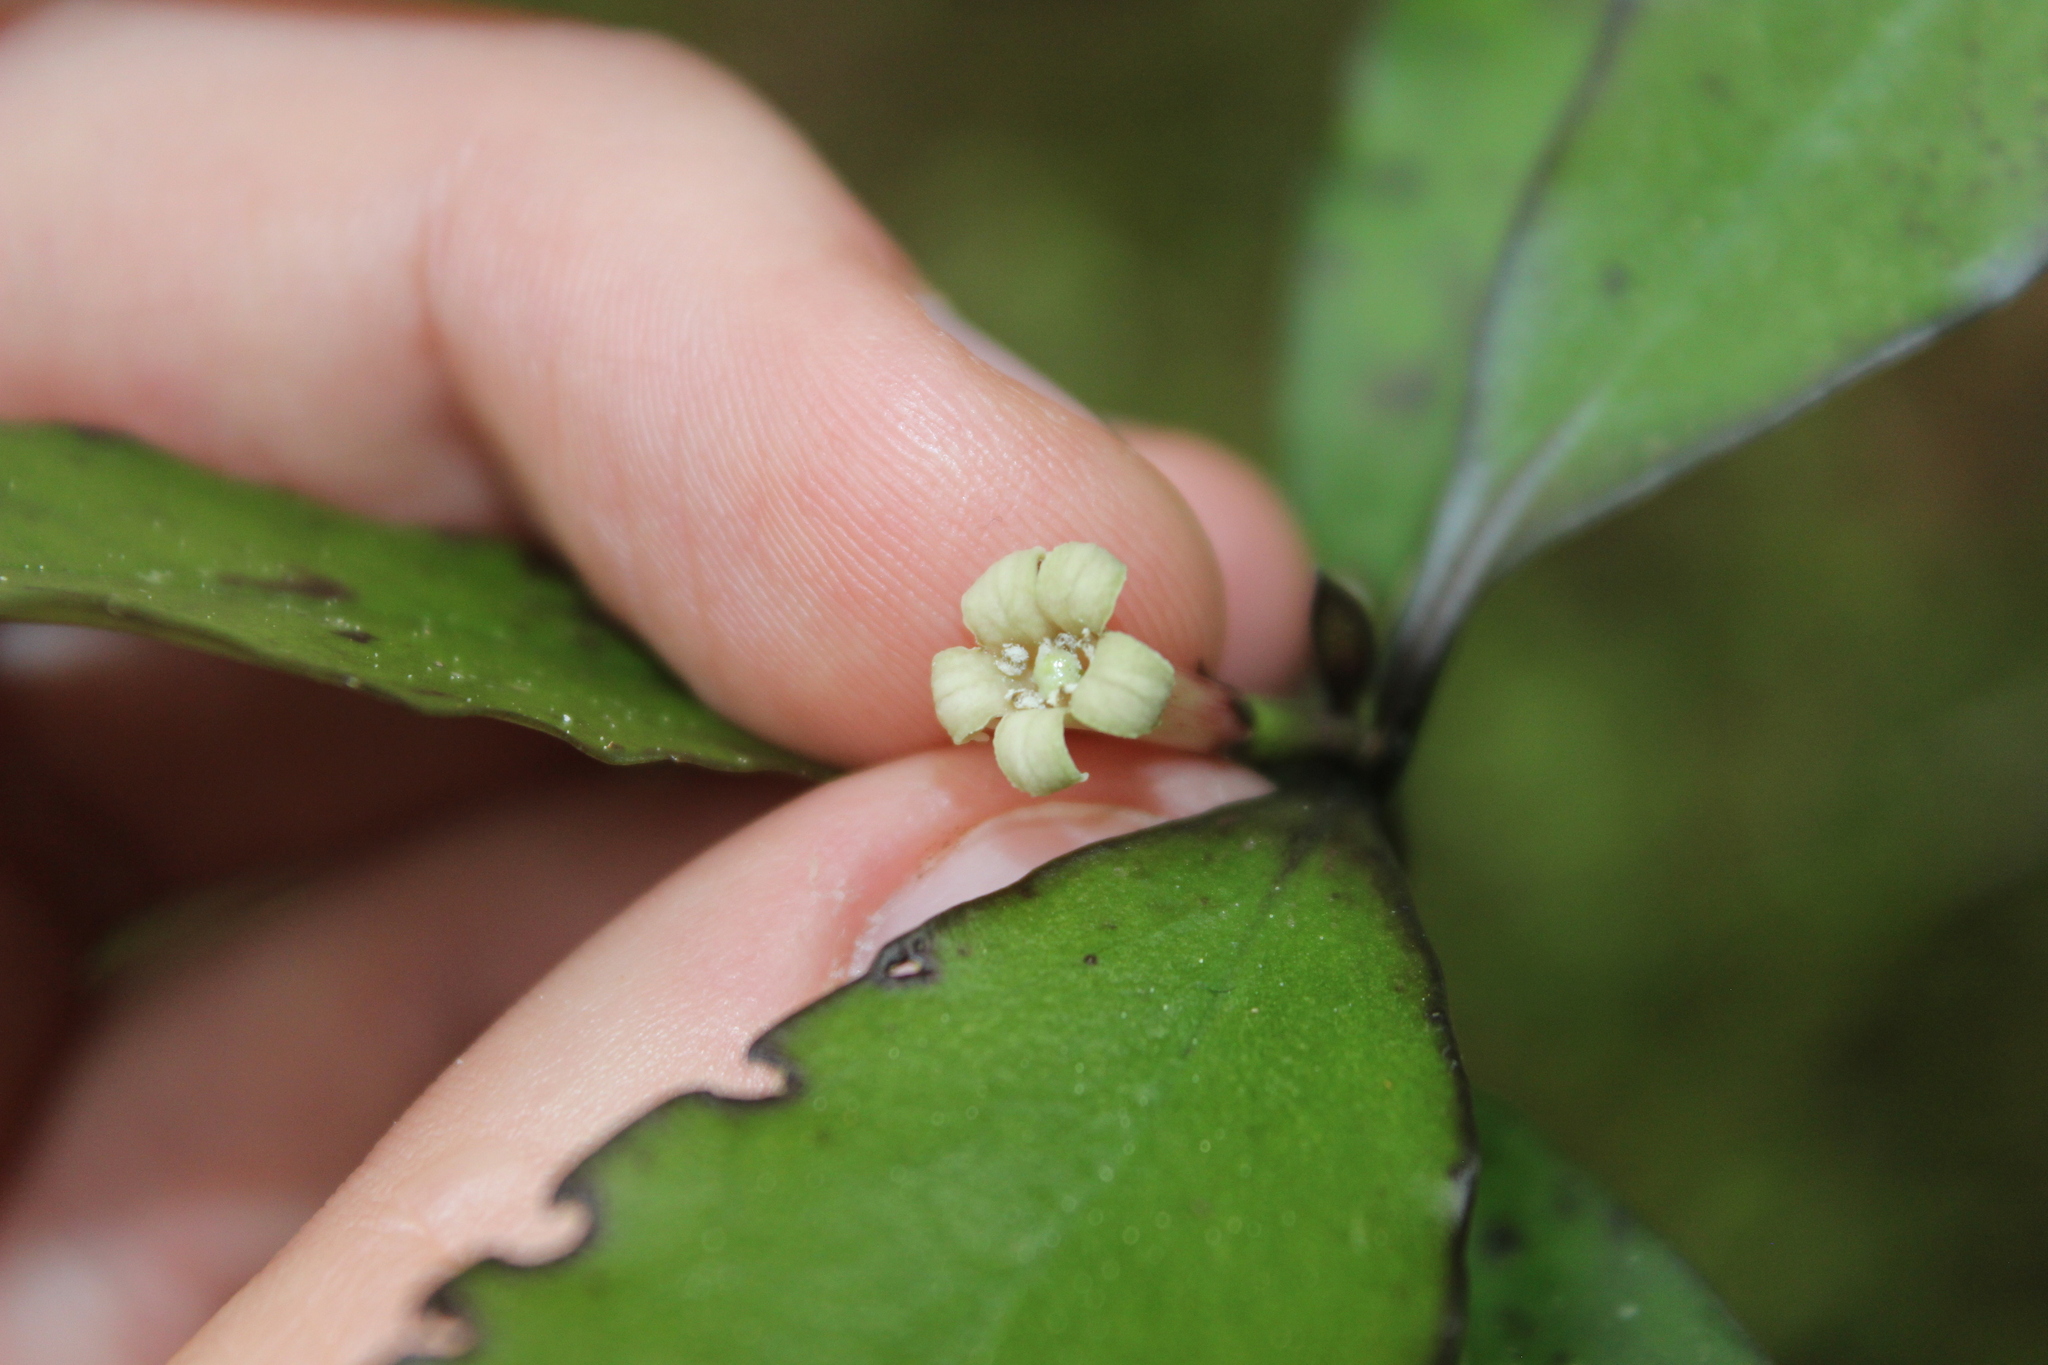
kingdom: Plantae
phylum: Tracheophyta
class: Magnoliopsida
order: Asterales
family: Alseuosmiaceae
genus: Alseuosmia
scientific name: Alseuosmia pusilla
